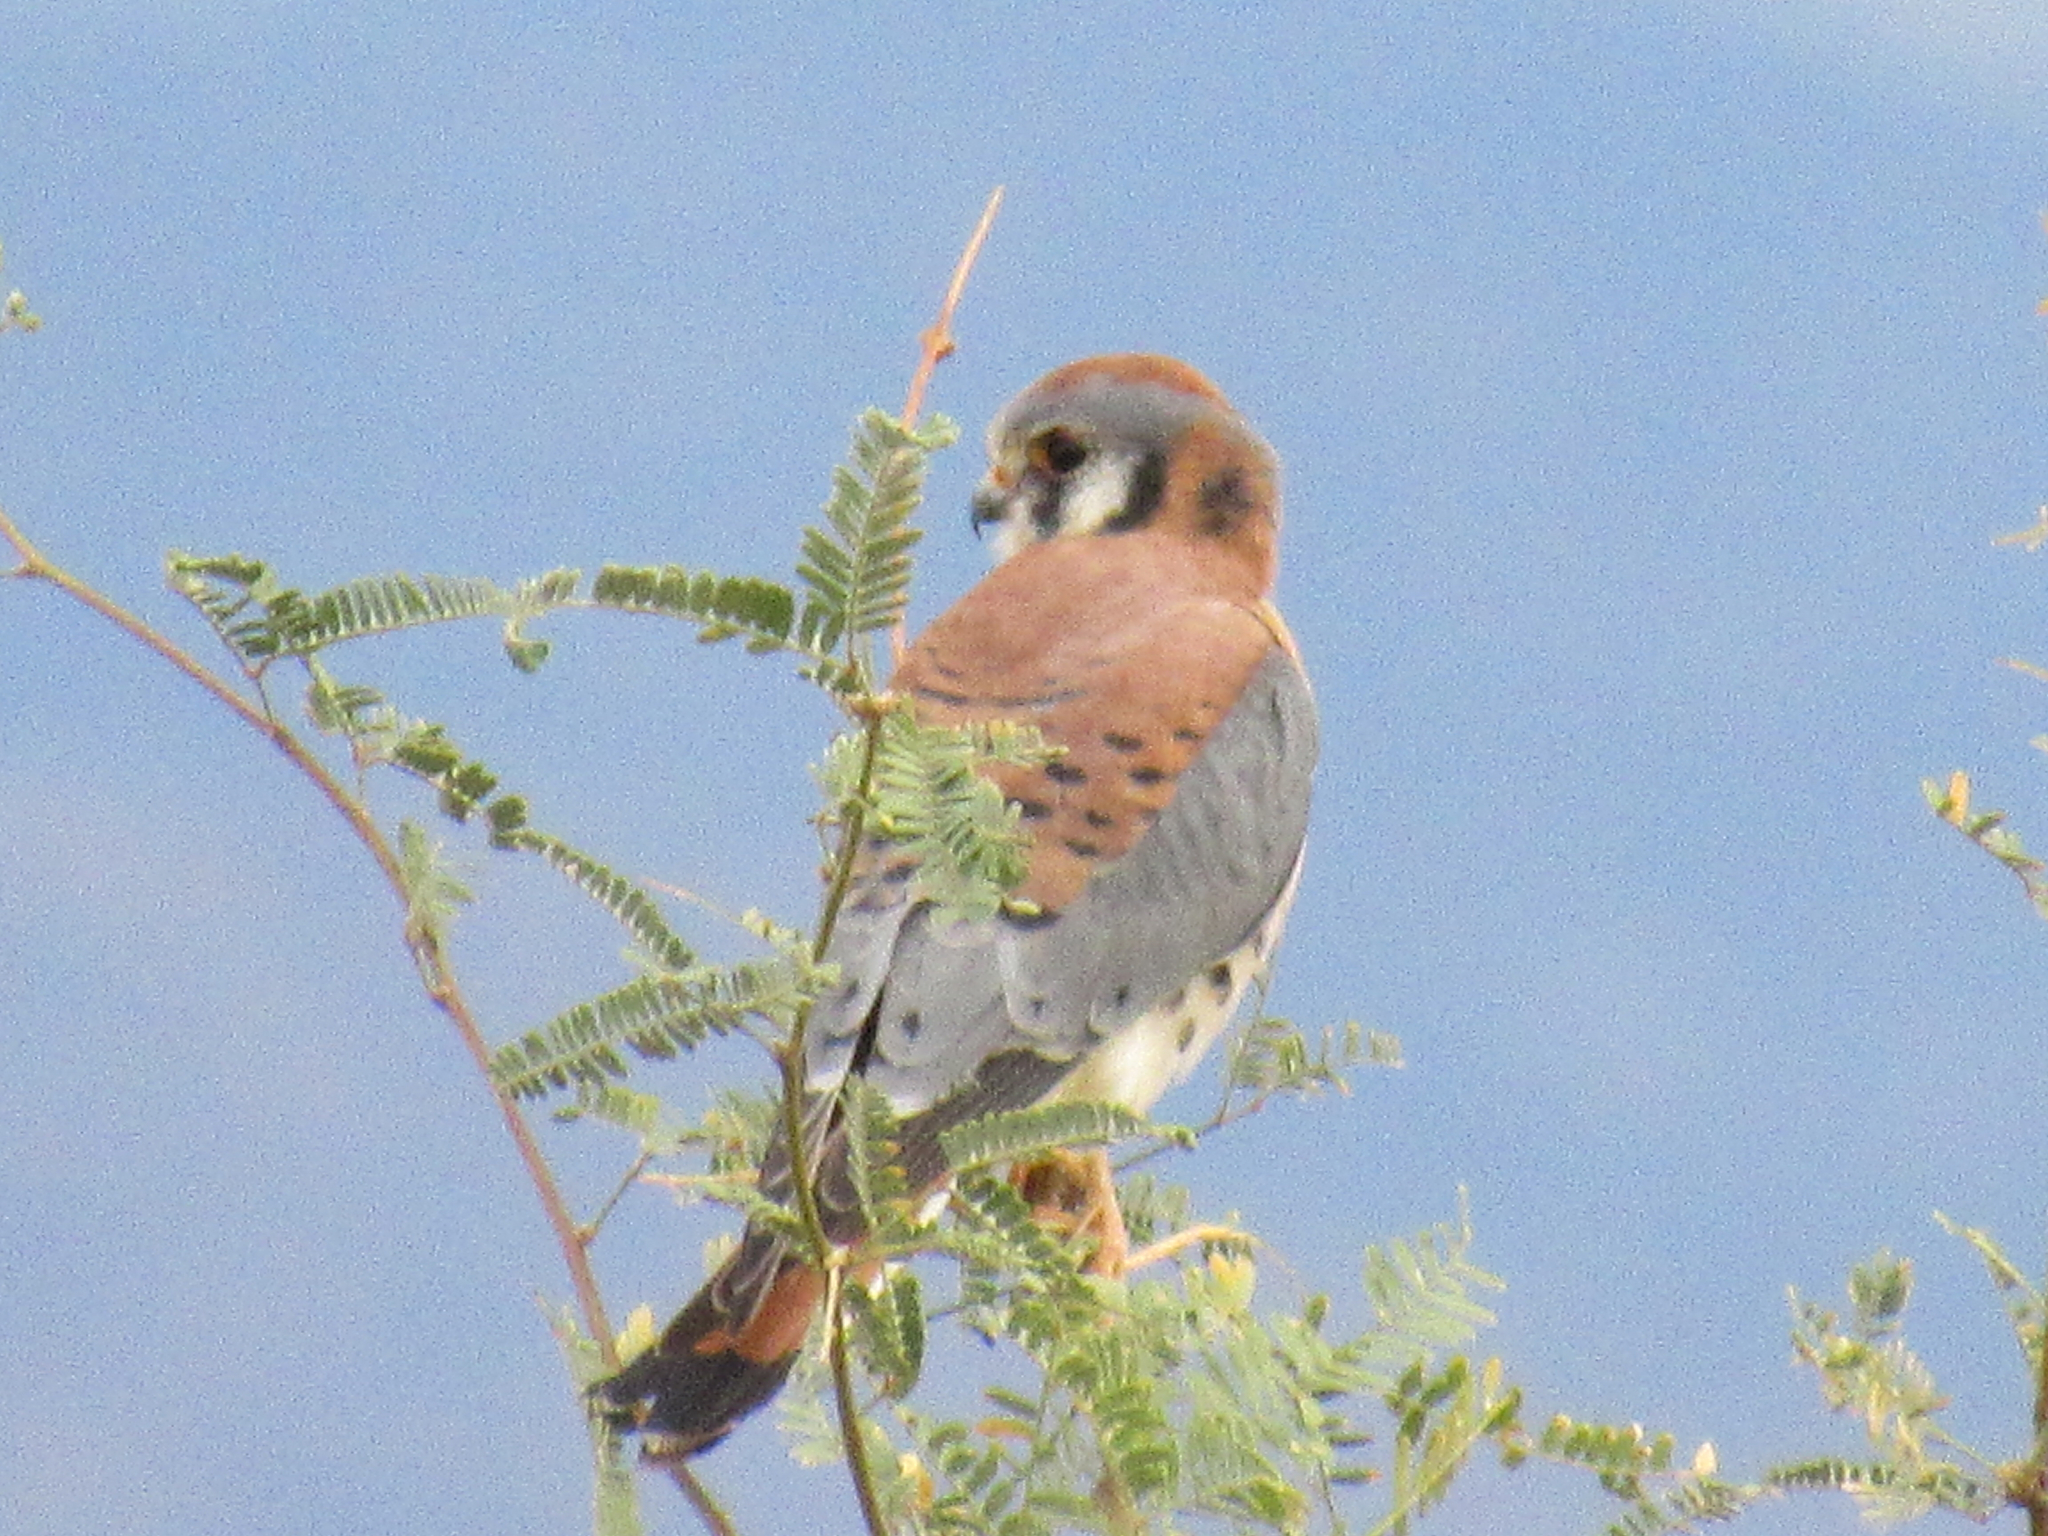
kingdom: Animalia
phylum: Chordata
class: Aves
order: Falconiformes
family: Falconidae
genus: Falco
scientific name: Falco sparverius
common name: American kestrel
